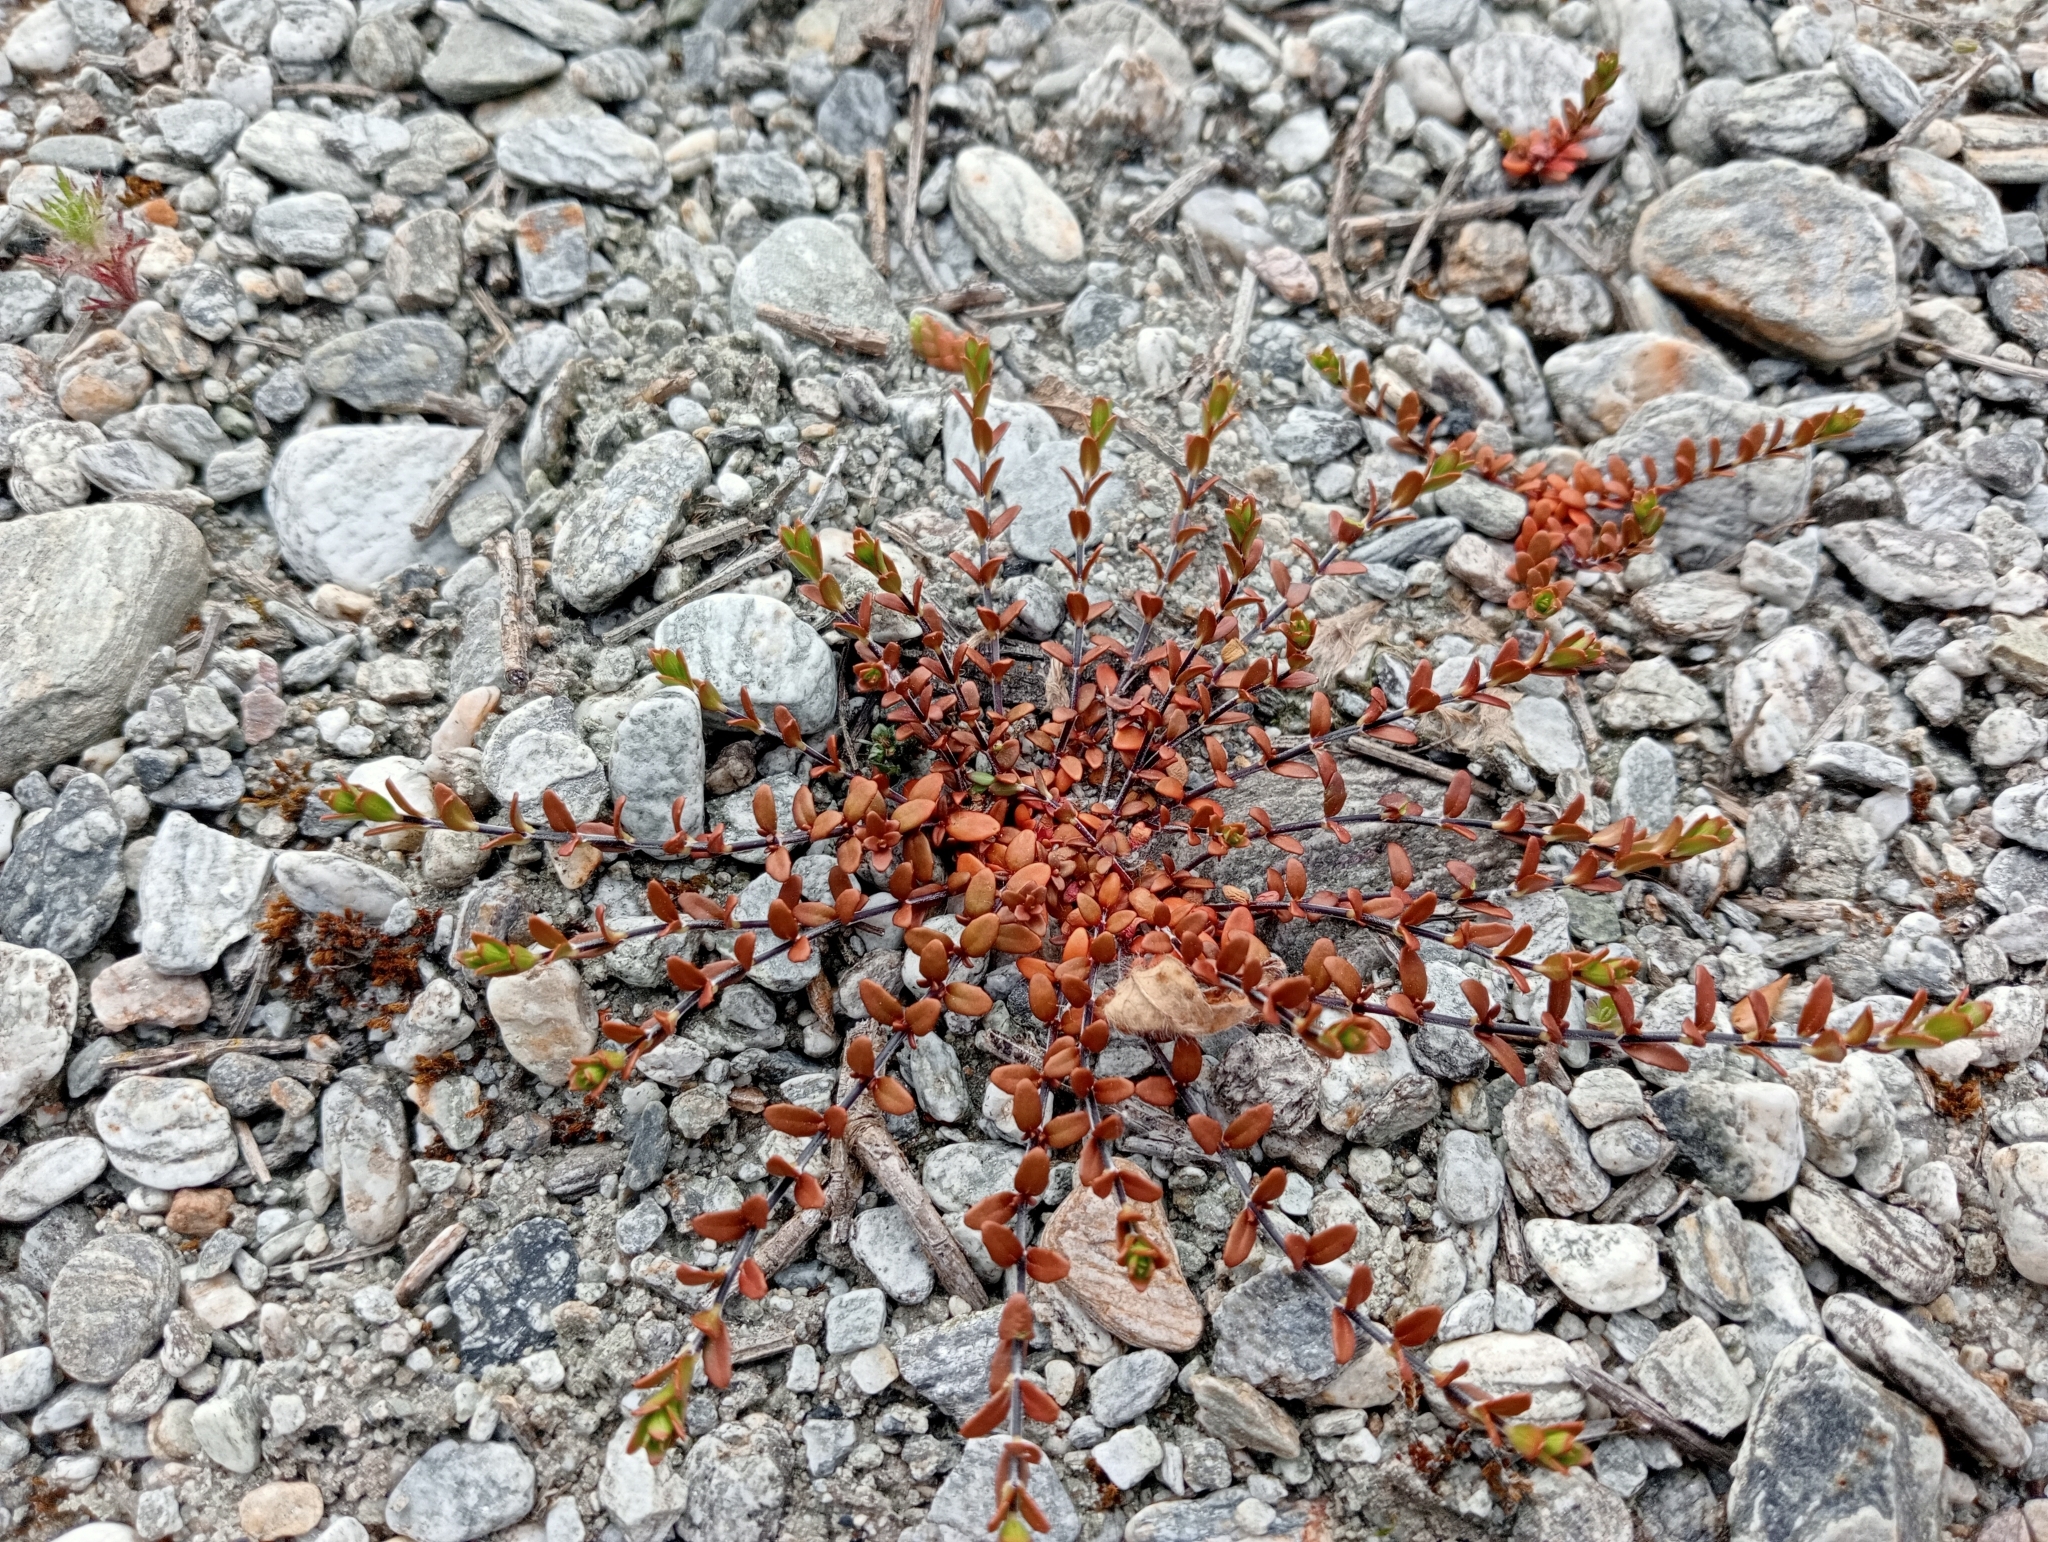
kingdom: Plantae
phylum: Tracheophyta
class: Magnoliopsida
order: Myrtales
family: Onagraceae
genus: Epilobium
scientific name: Epilobium microphyllum
